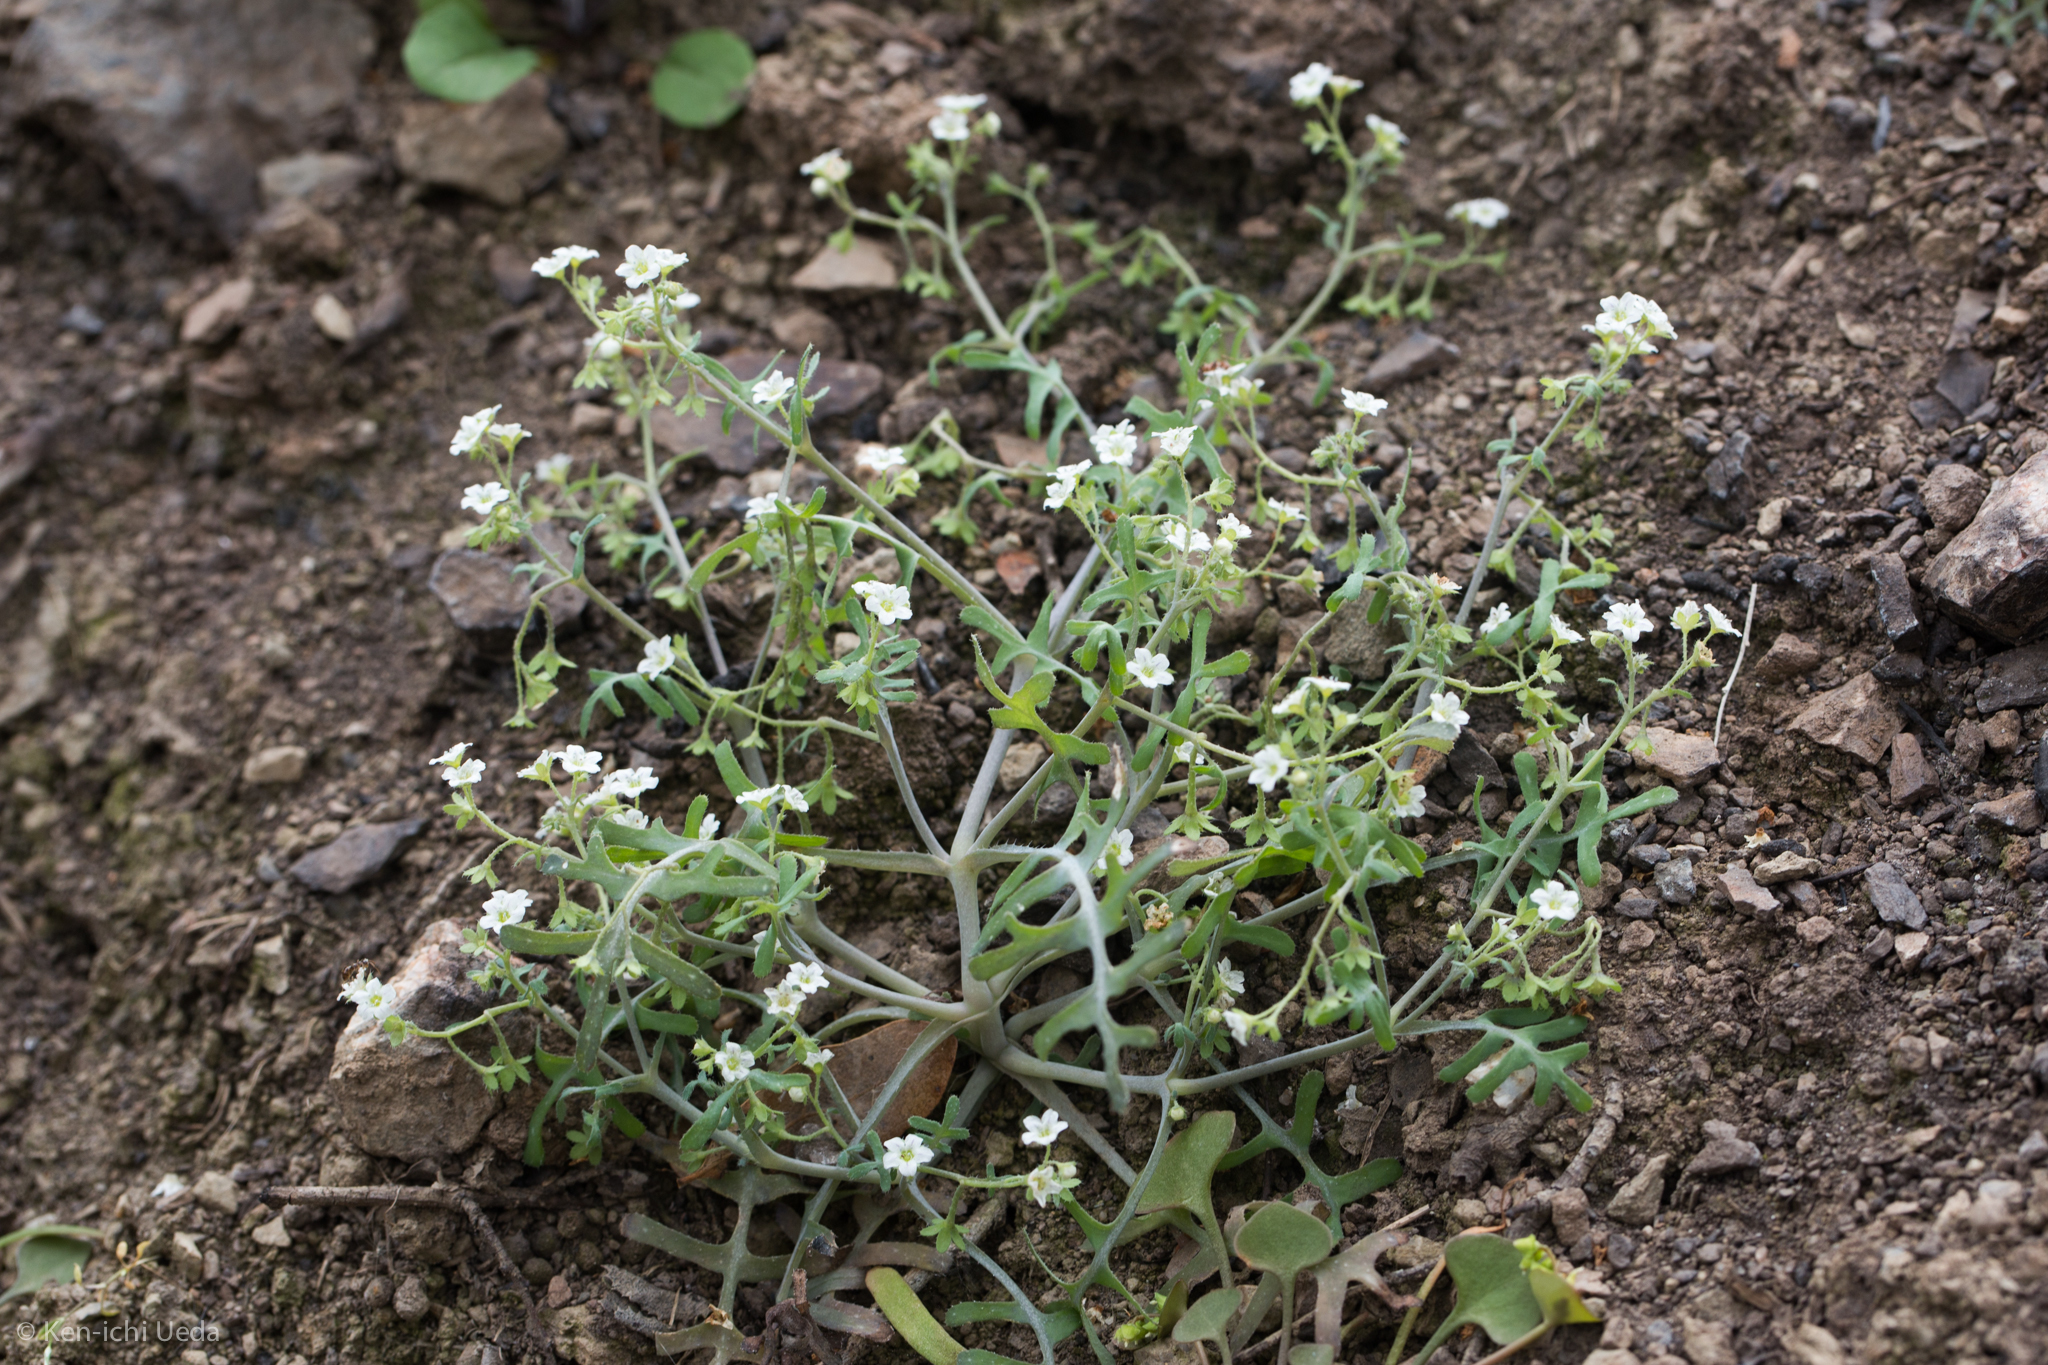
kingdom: Plantae
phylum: Tracheophyta
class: Magnoliopsida
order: Boraginales
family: Hydrophyllaceae
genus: Pholistoma
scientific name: Pholistoma membranaceum
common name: White fiesta-flower
